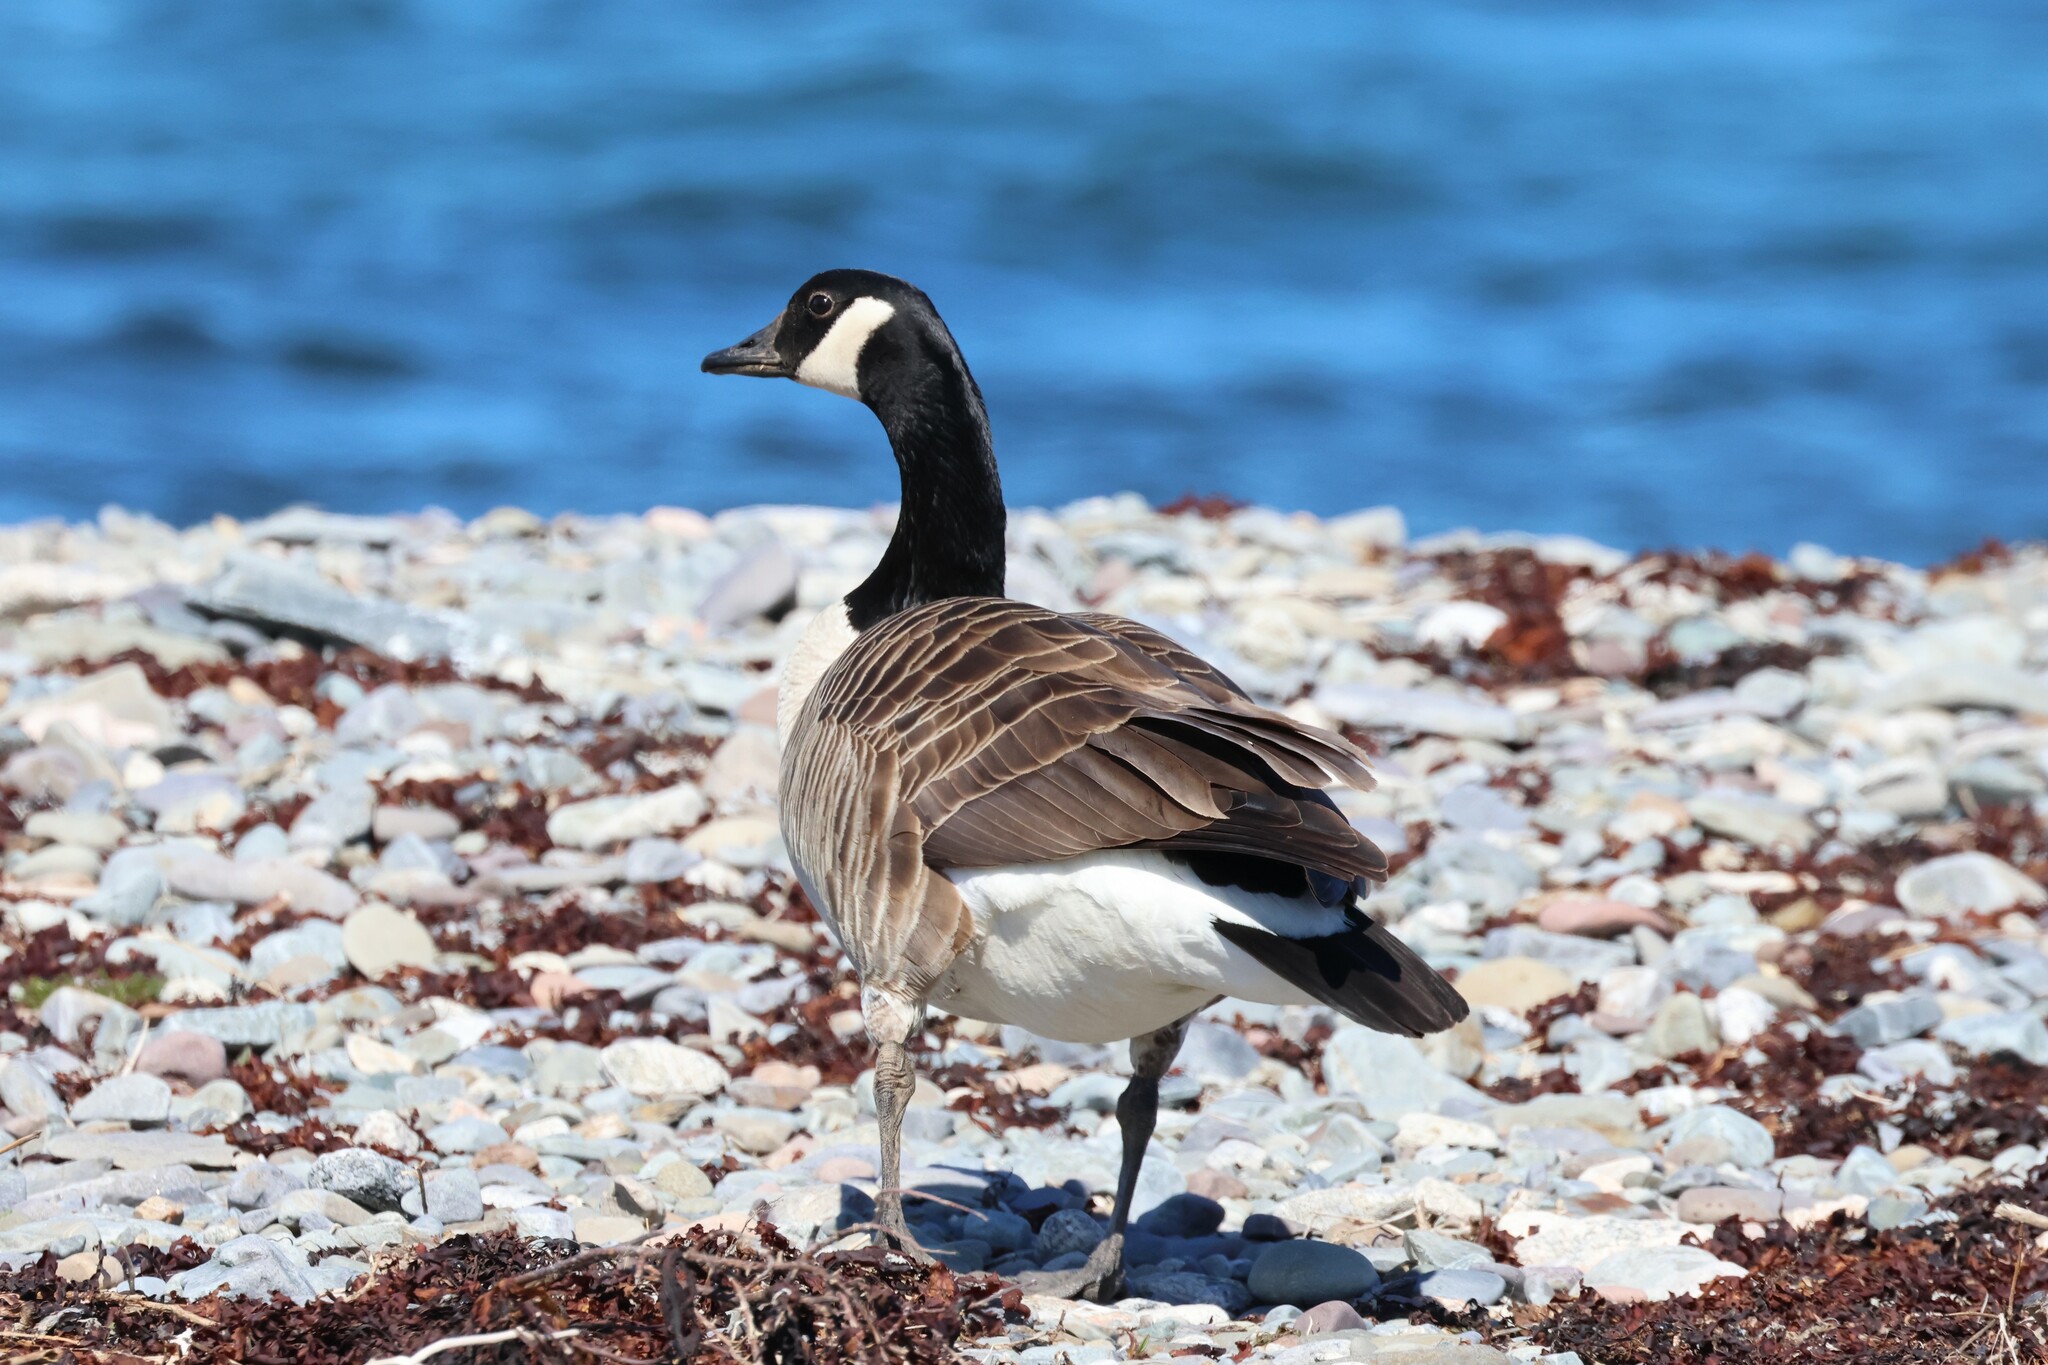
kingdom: Animalia
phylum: Chordata
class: Aves
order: Anseriformes
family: Anatidae
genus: Branta
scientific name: Branta canadensis
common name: Canada goose
